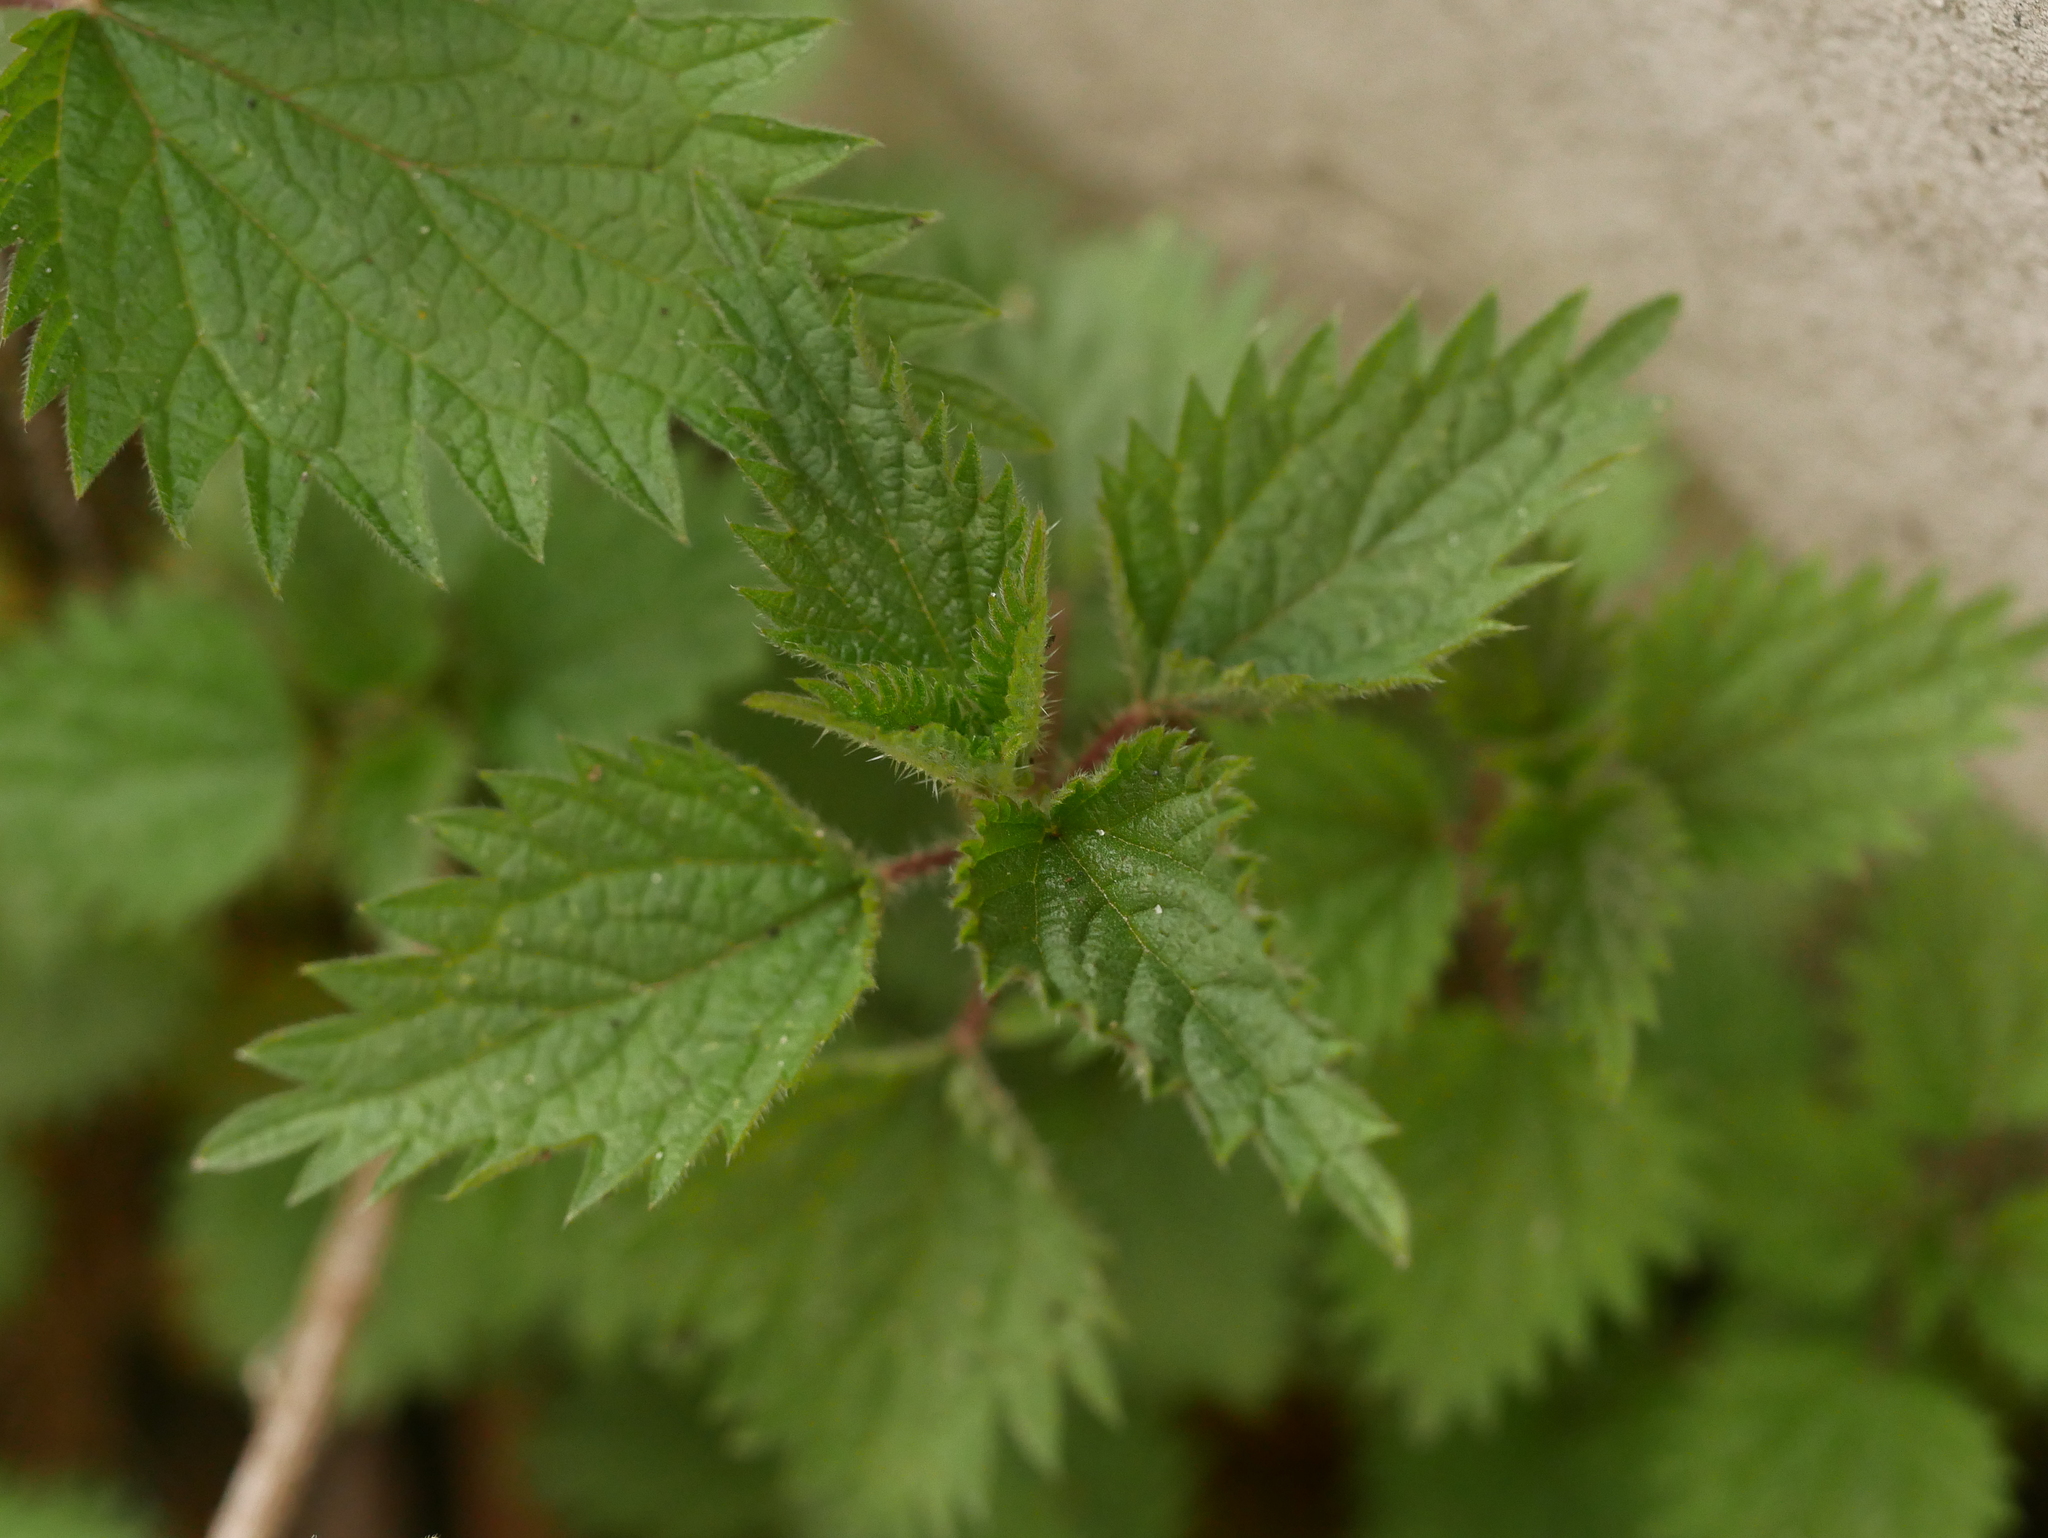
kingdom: Plantae
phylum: Tracheophyta
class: Magnoliopsida
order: Rosales
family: Urticaceae
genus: Urtica
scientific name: Urtica dioica
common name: Common nettle
